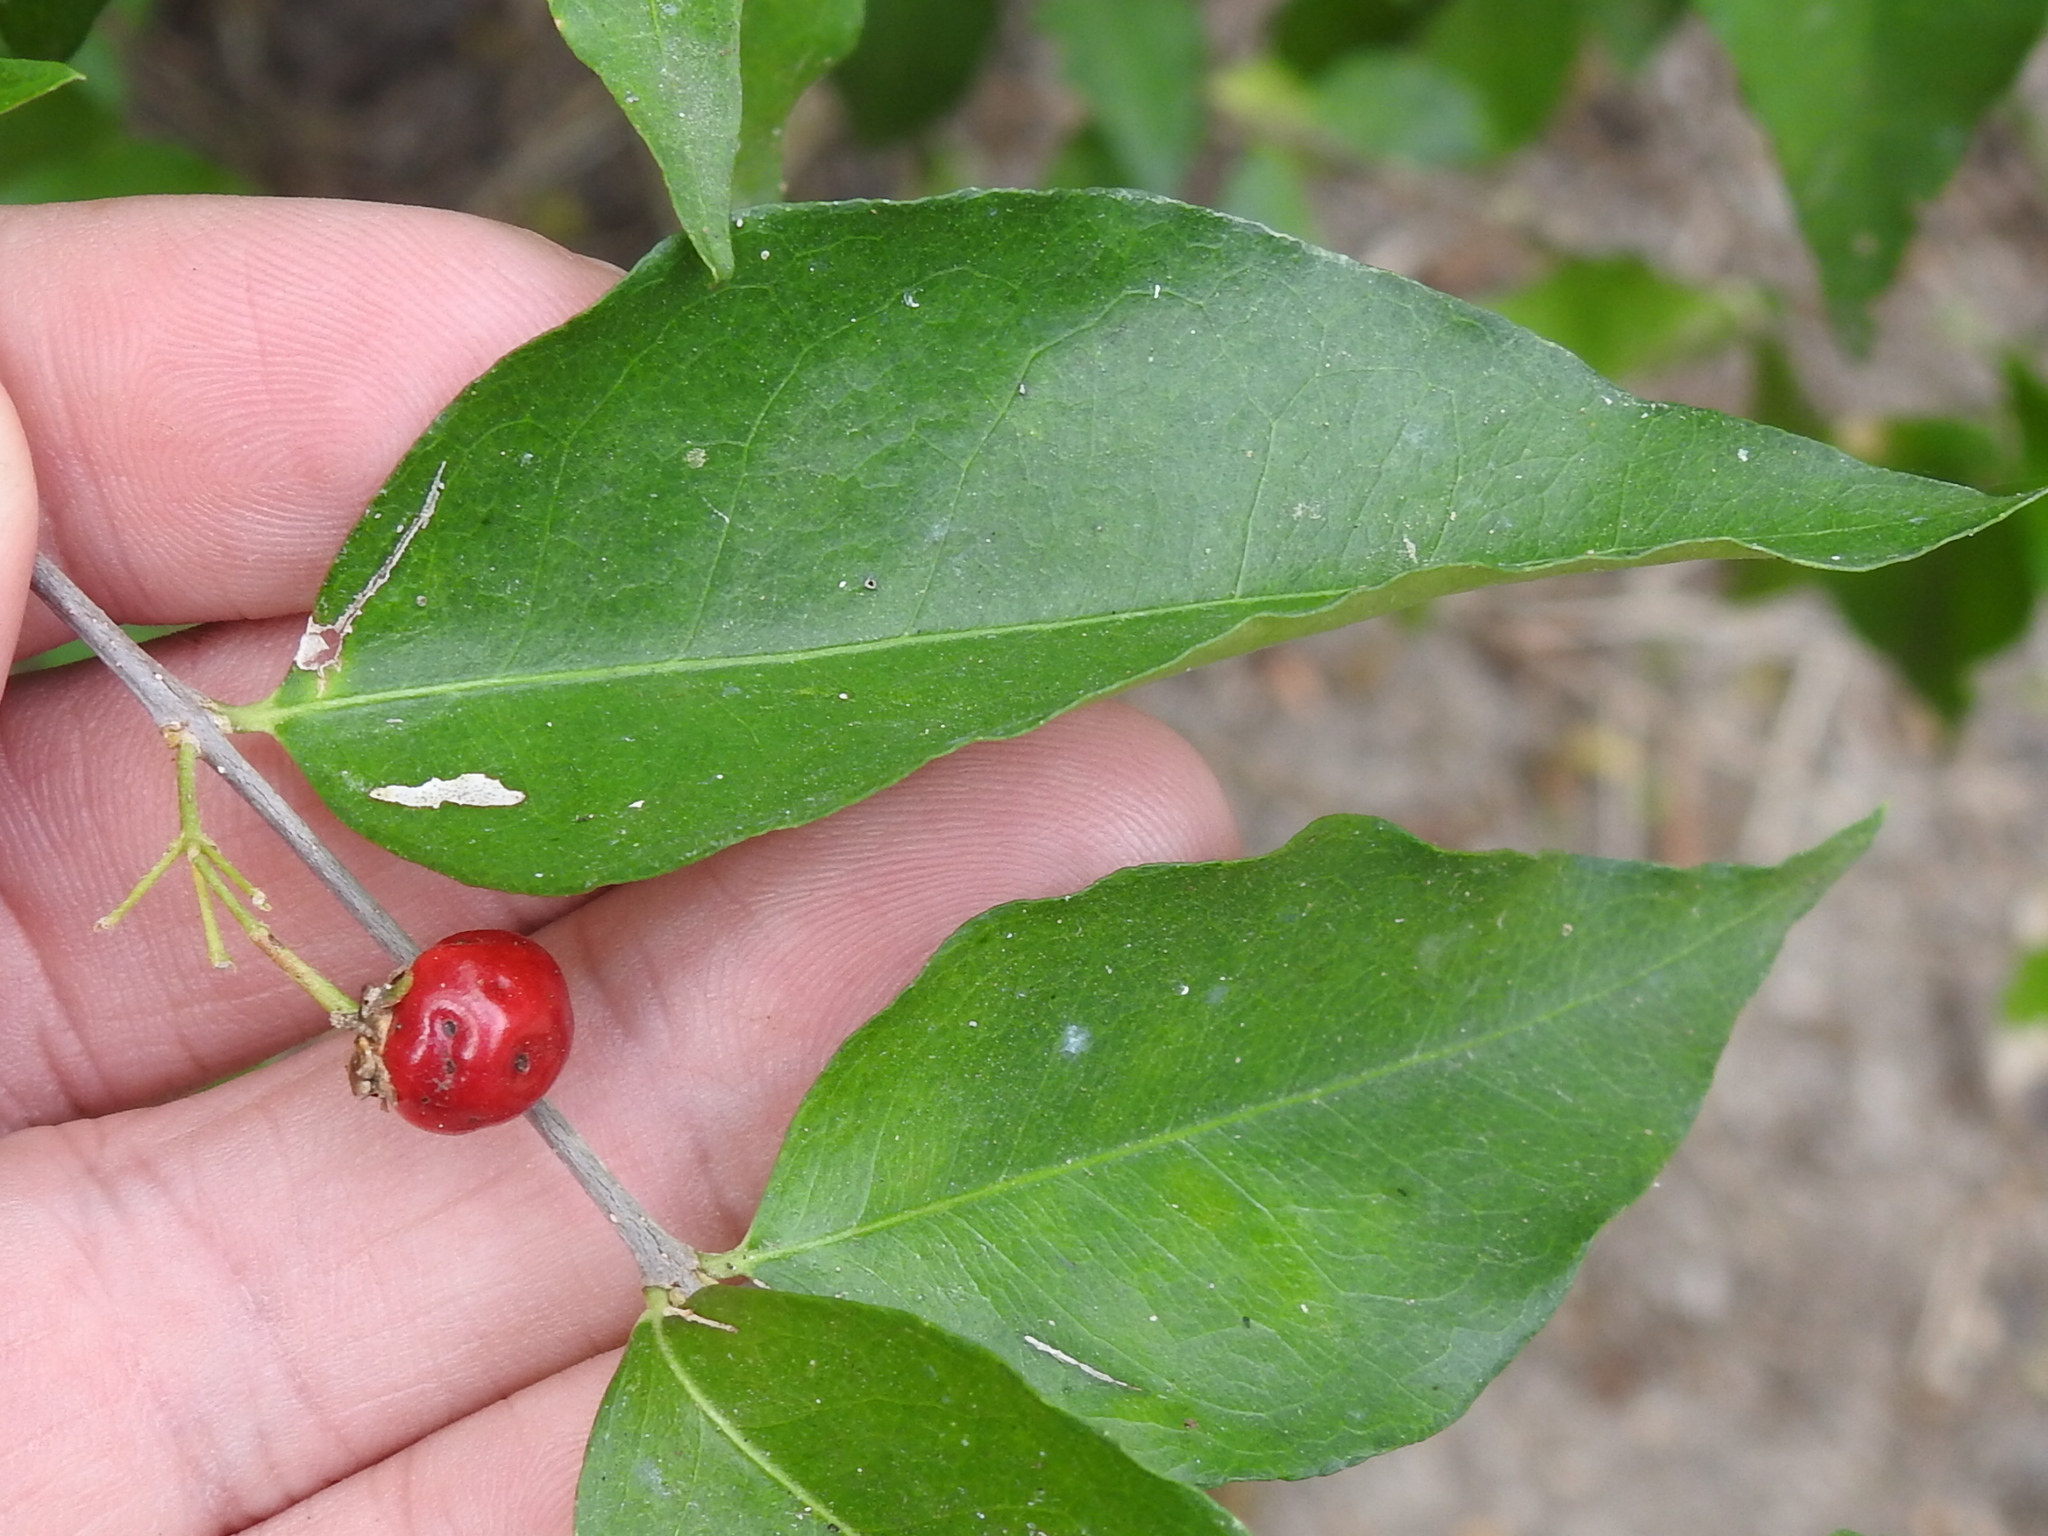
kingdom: Plantae
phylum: Tracheophyta
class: Magnoliopsida
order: Malpighiales
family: Malpighiaceae
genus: Malpighia
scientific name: Malpighia glabra
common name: Barbados cherry
